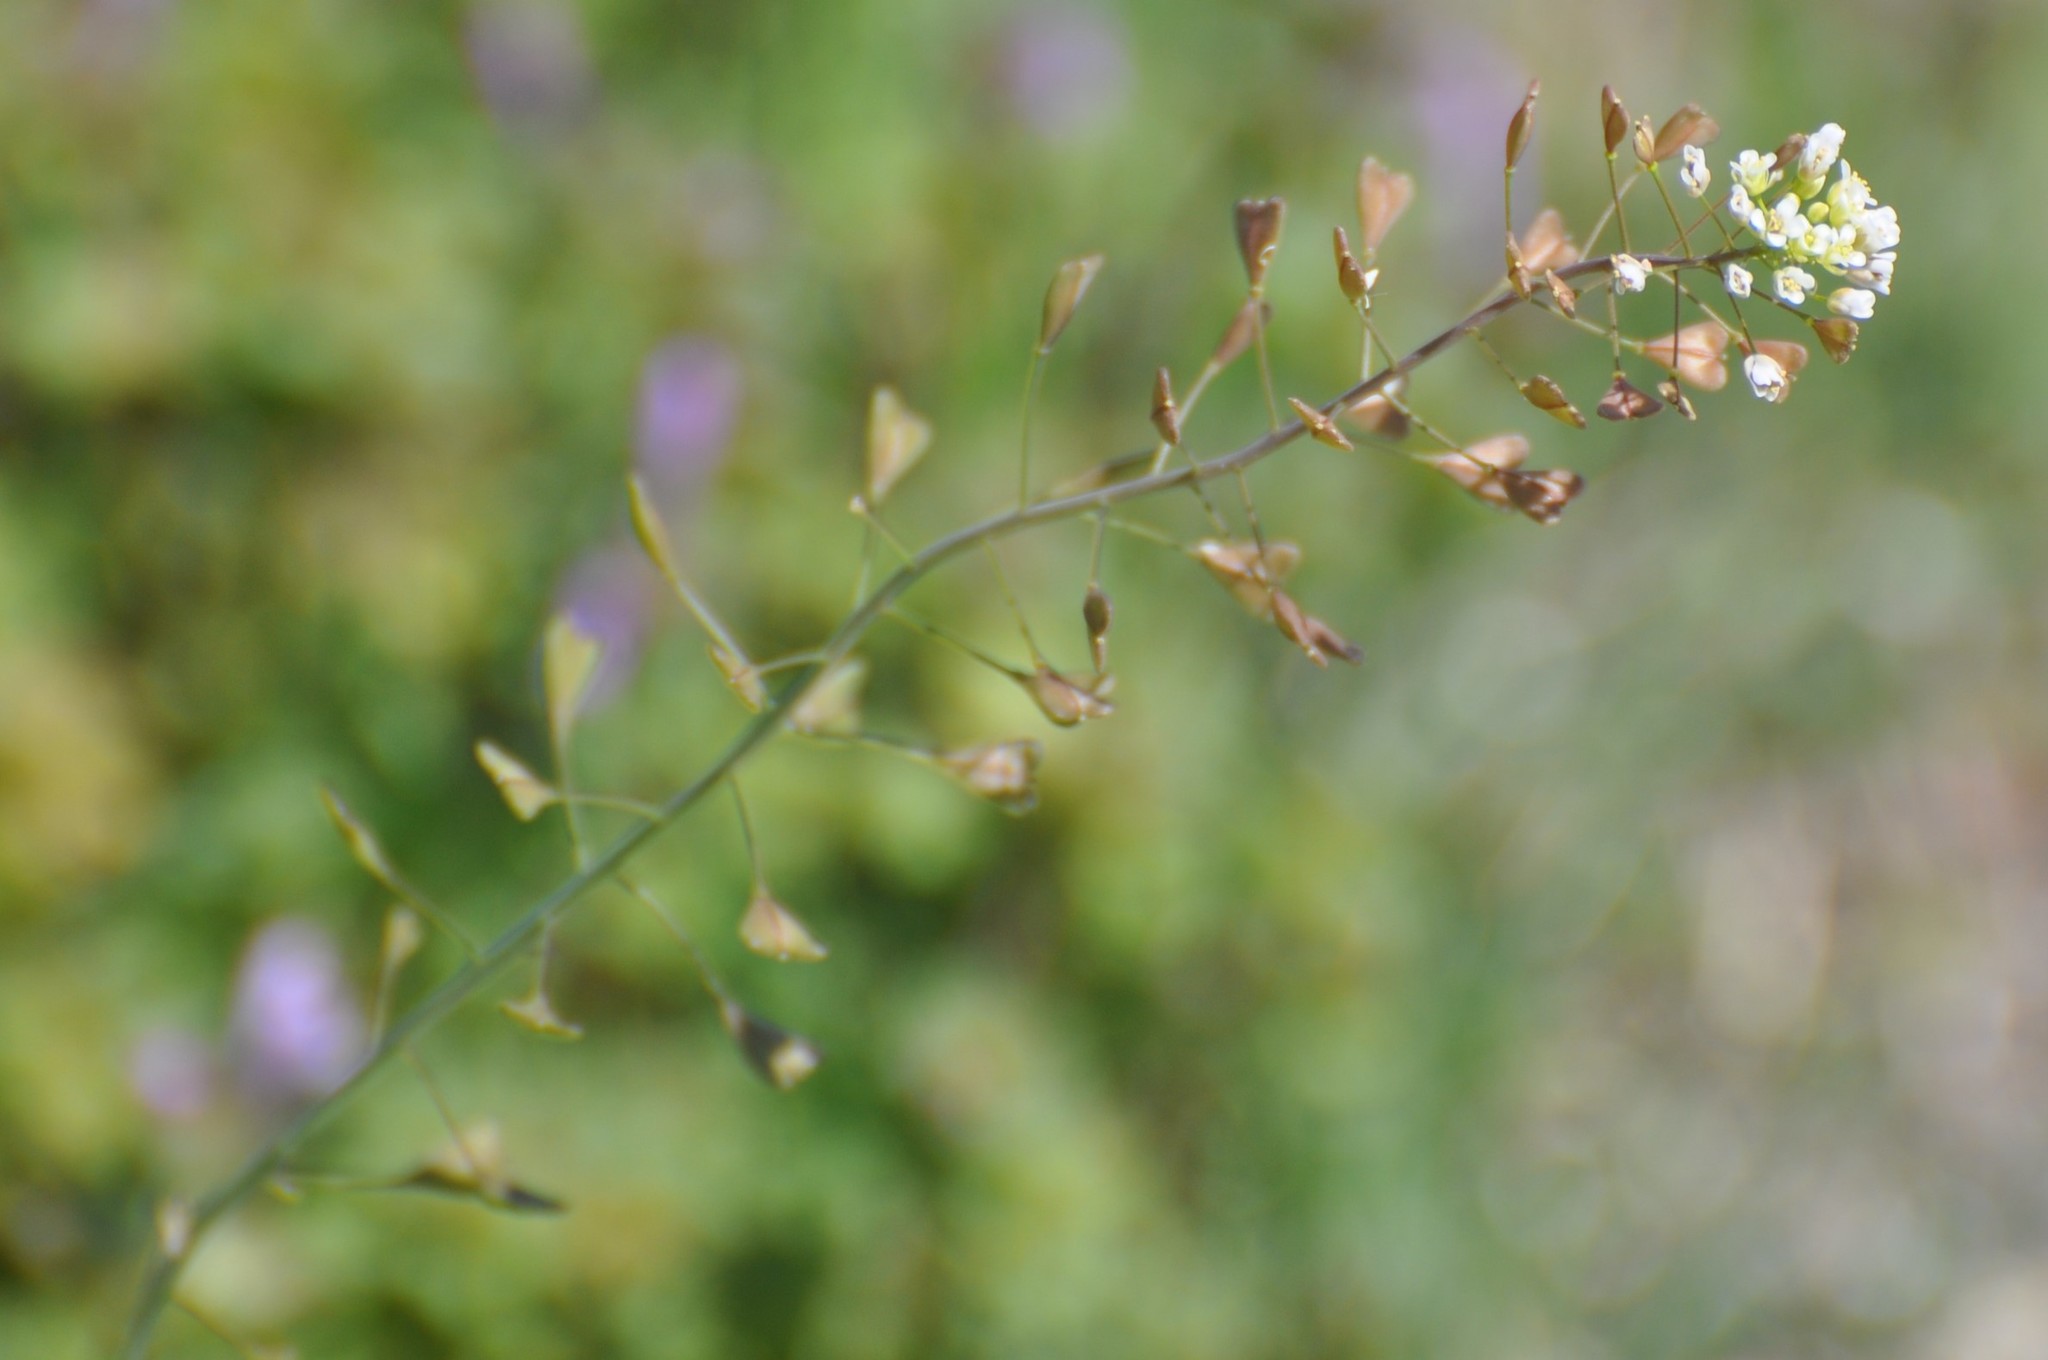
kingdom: Plantae
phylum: Tracheophyta
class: Magnoliopsida
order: Brassicales
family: Brassicaceae
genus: Capsella
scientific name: Capsella bursa-pastoris
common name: Shepherd's purse
